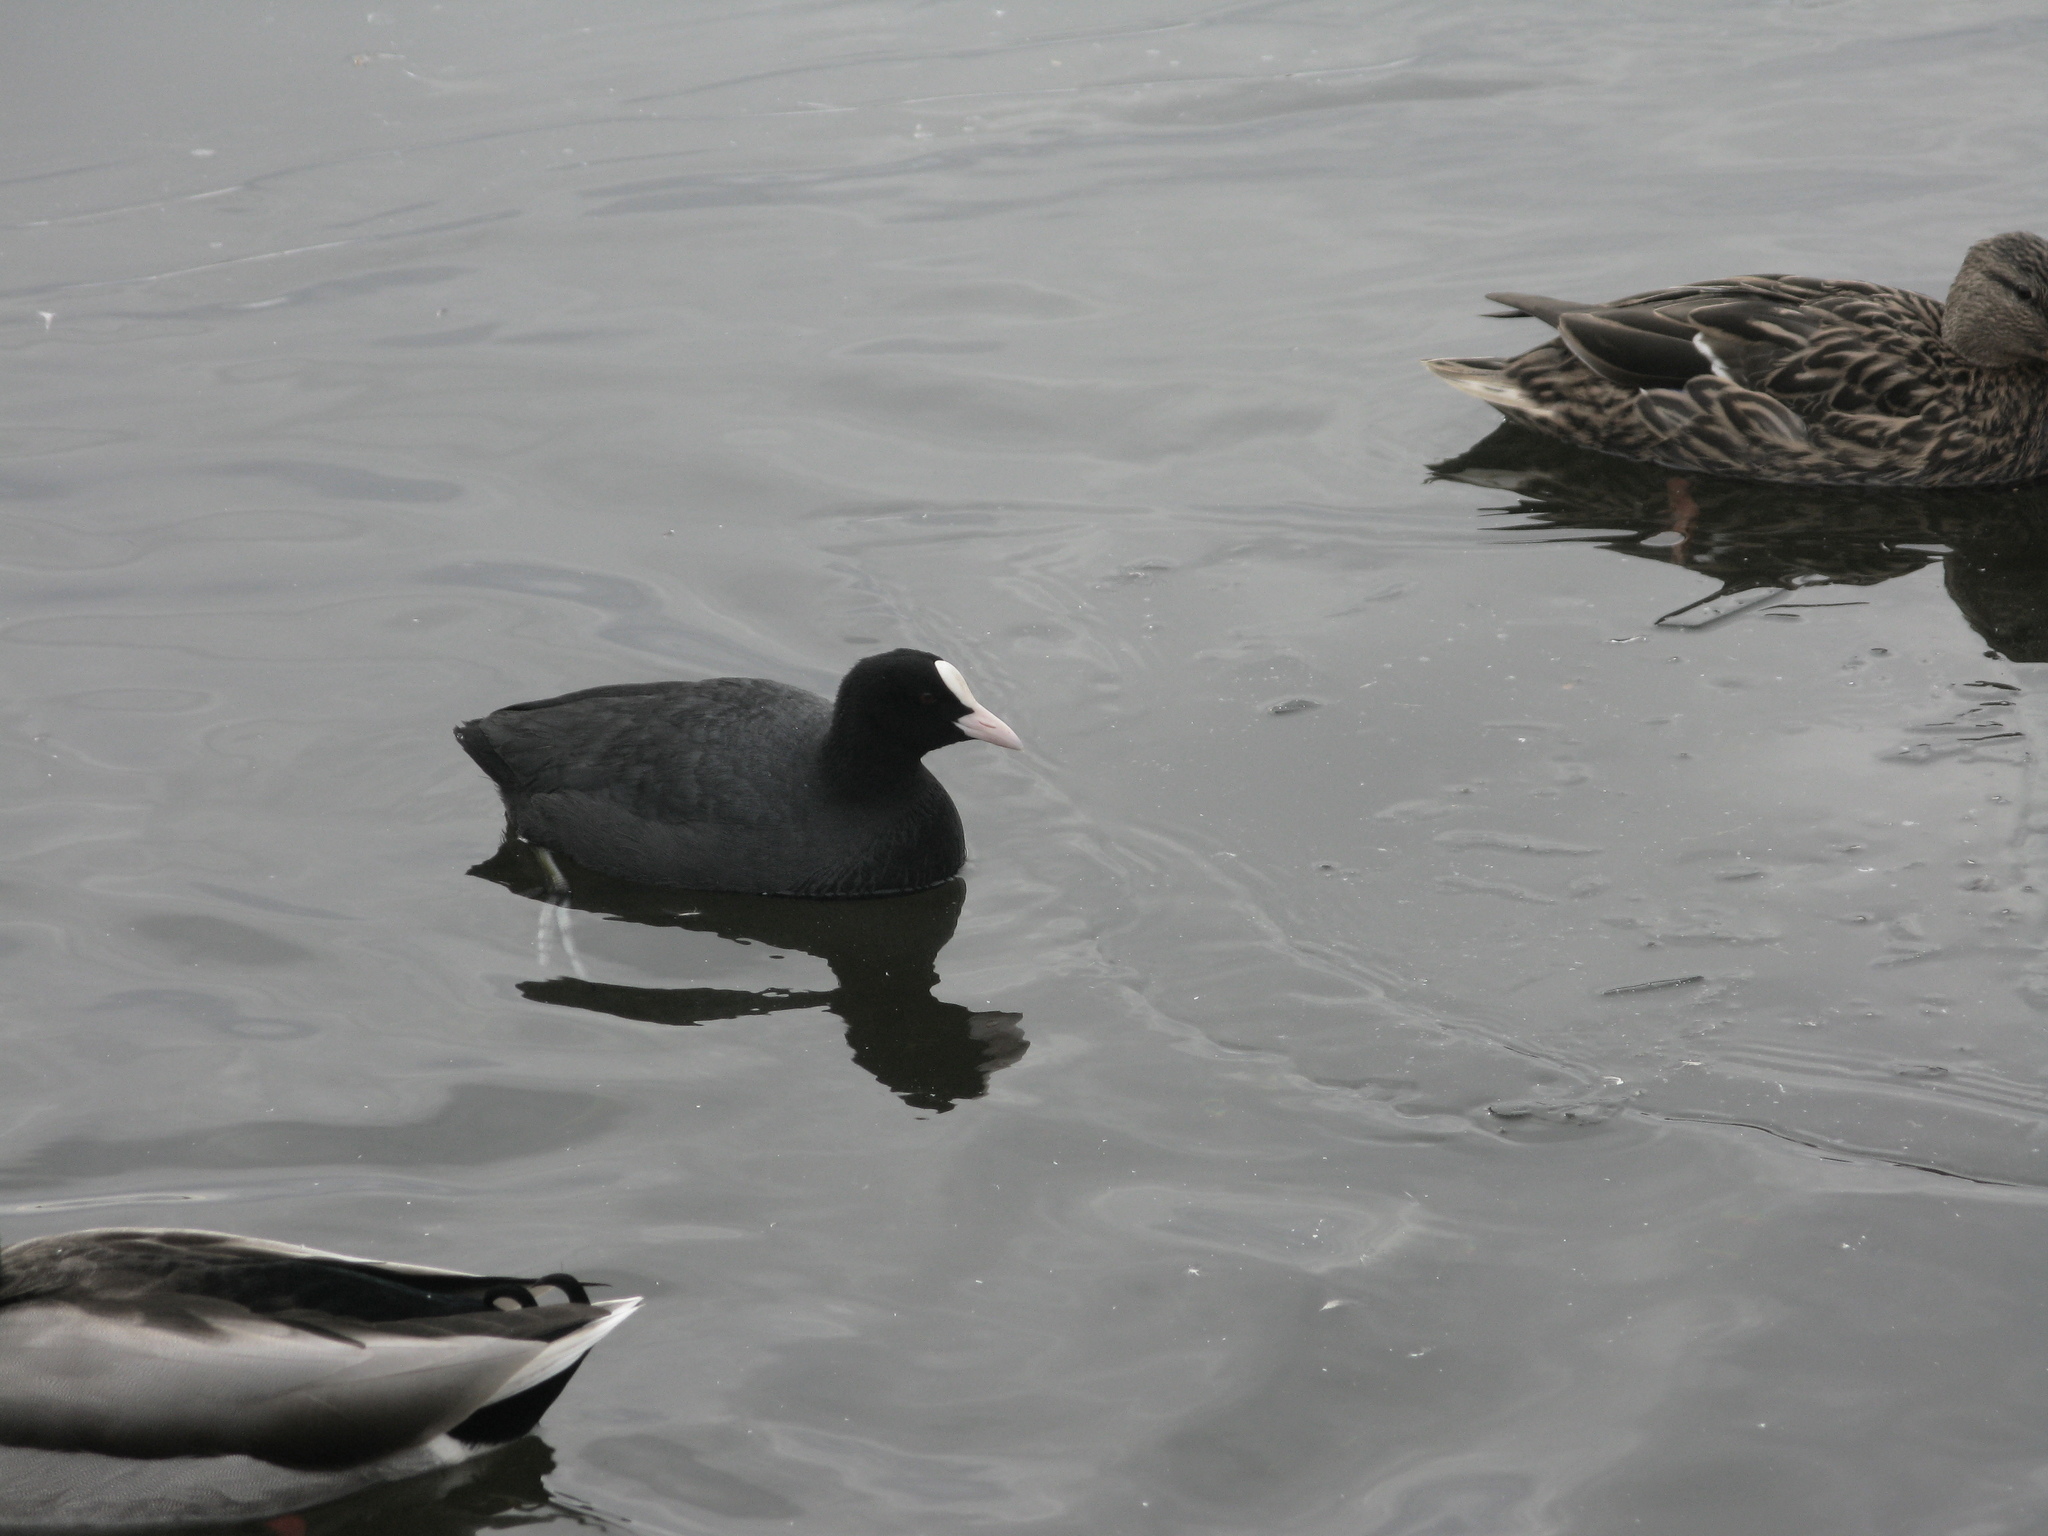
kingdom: Animalia
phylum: Chordata
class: Aves
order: Gruiformes
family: Rallidae
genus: Fulica
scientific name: Fulica atra
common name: Eurasian coot
